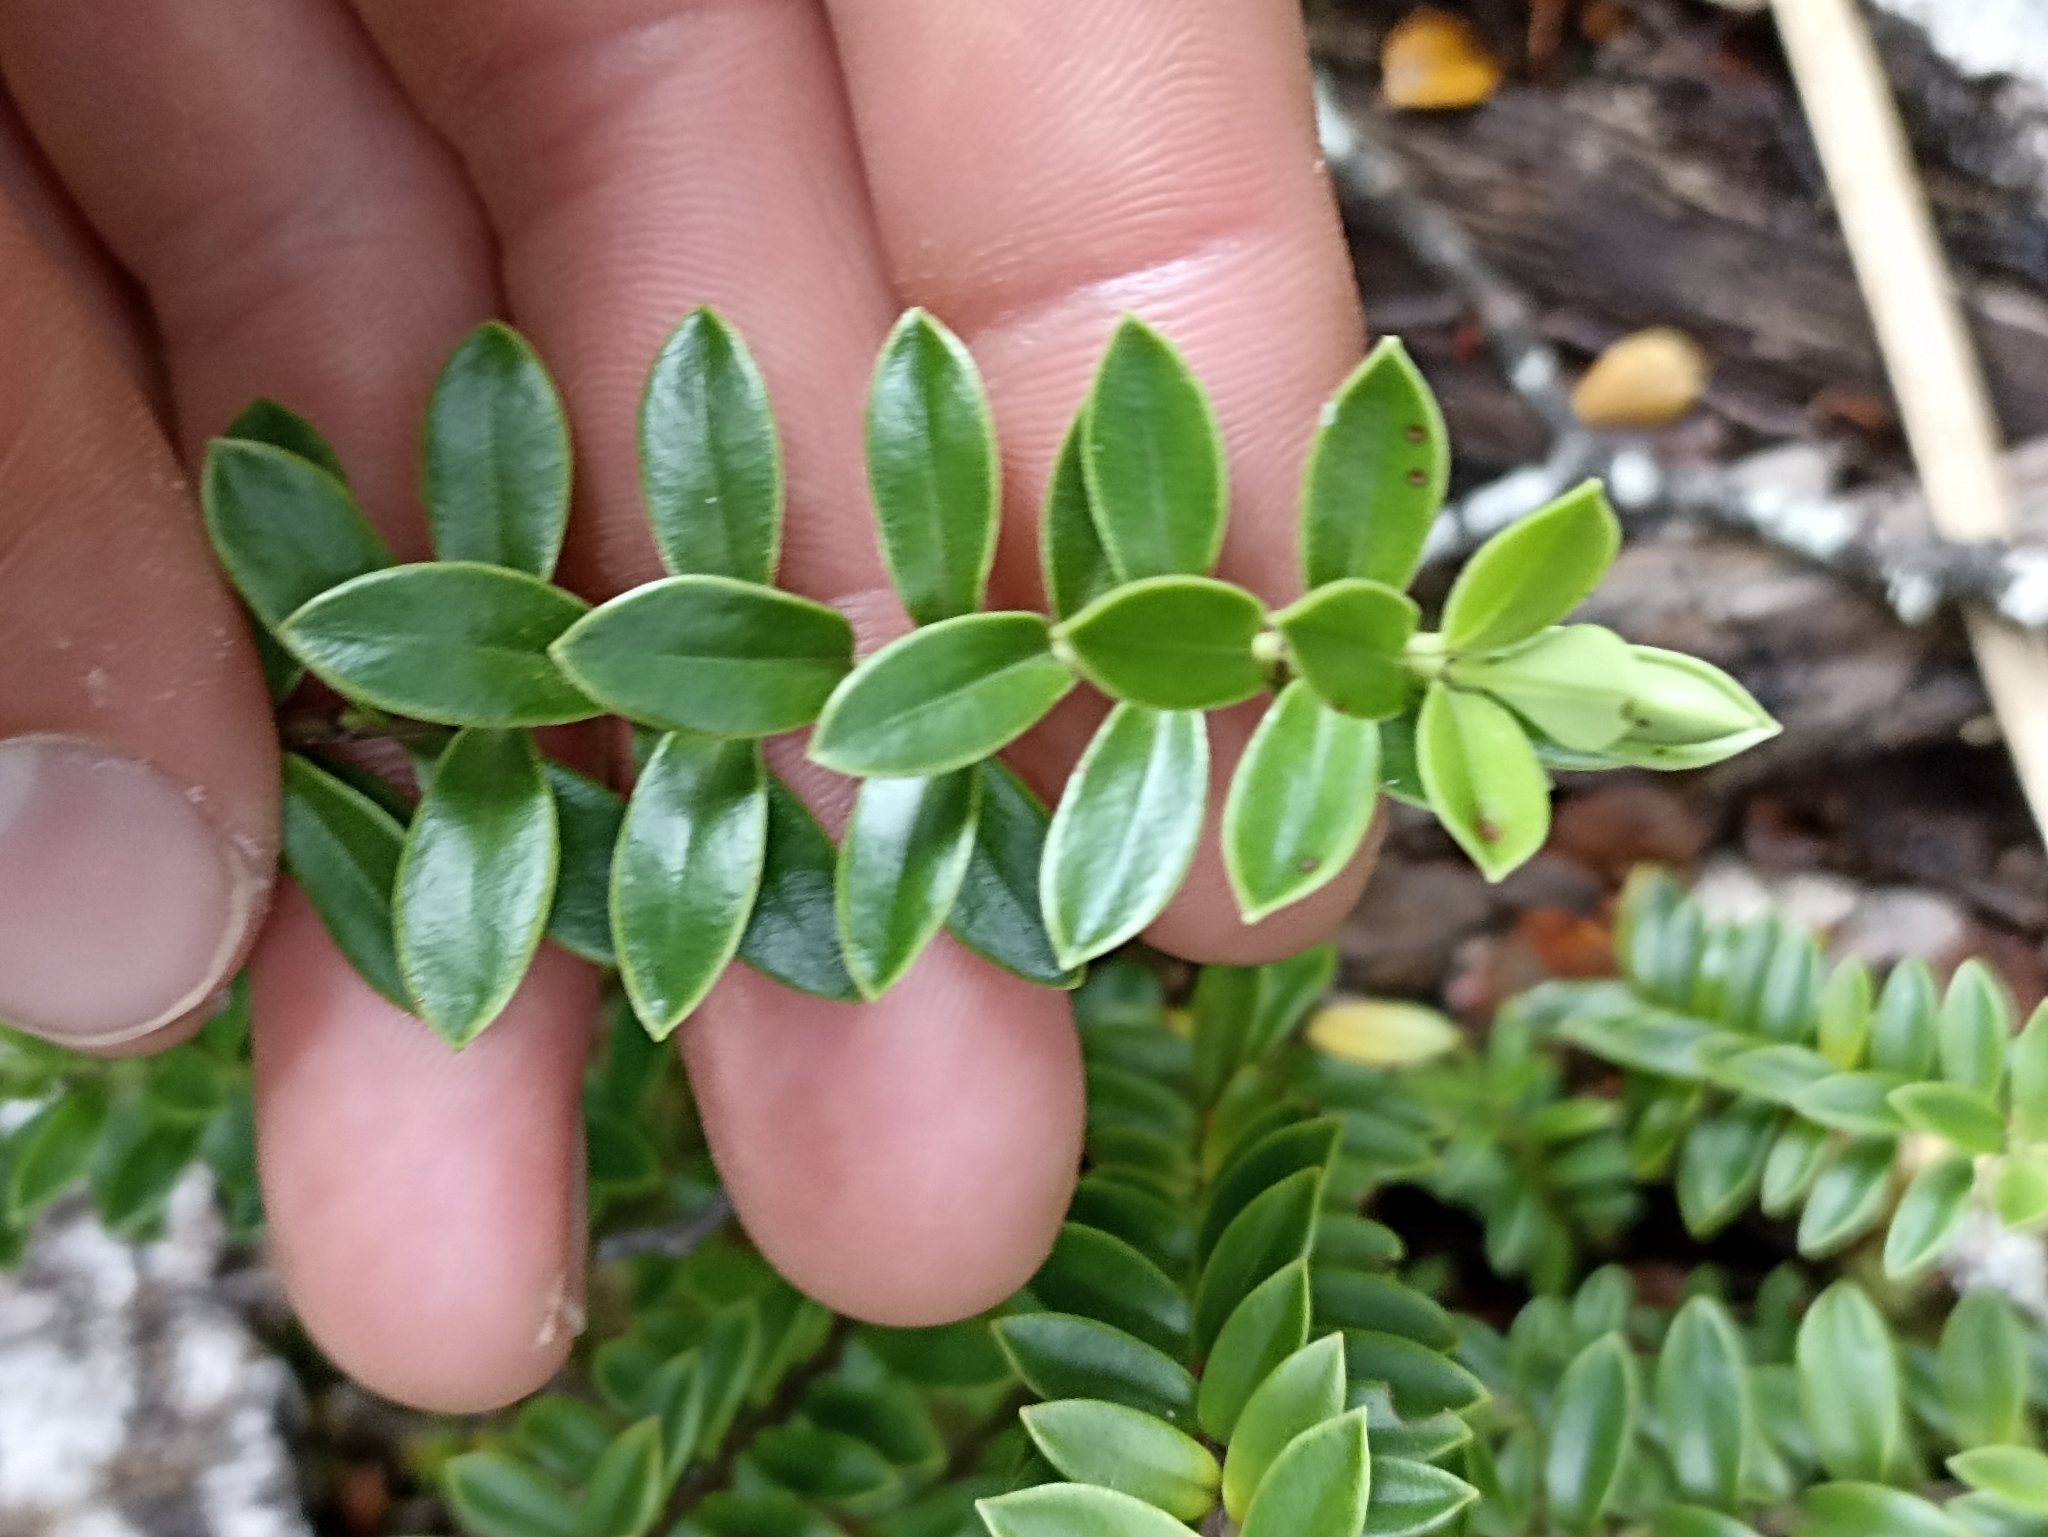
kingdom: Plantae
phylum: Tracheophyta
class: Magnoliopsida
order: Lamiales
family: Plantaginaceae
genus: Veronica
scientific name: Veronica vernicosa
